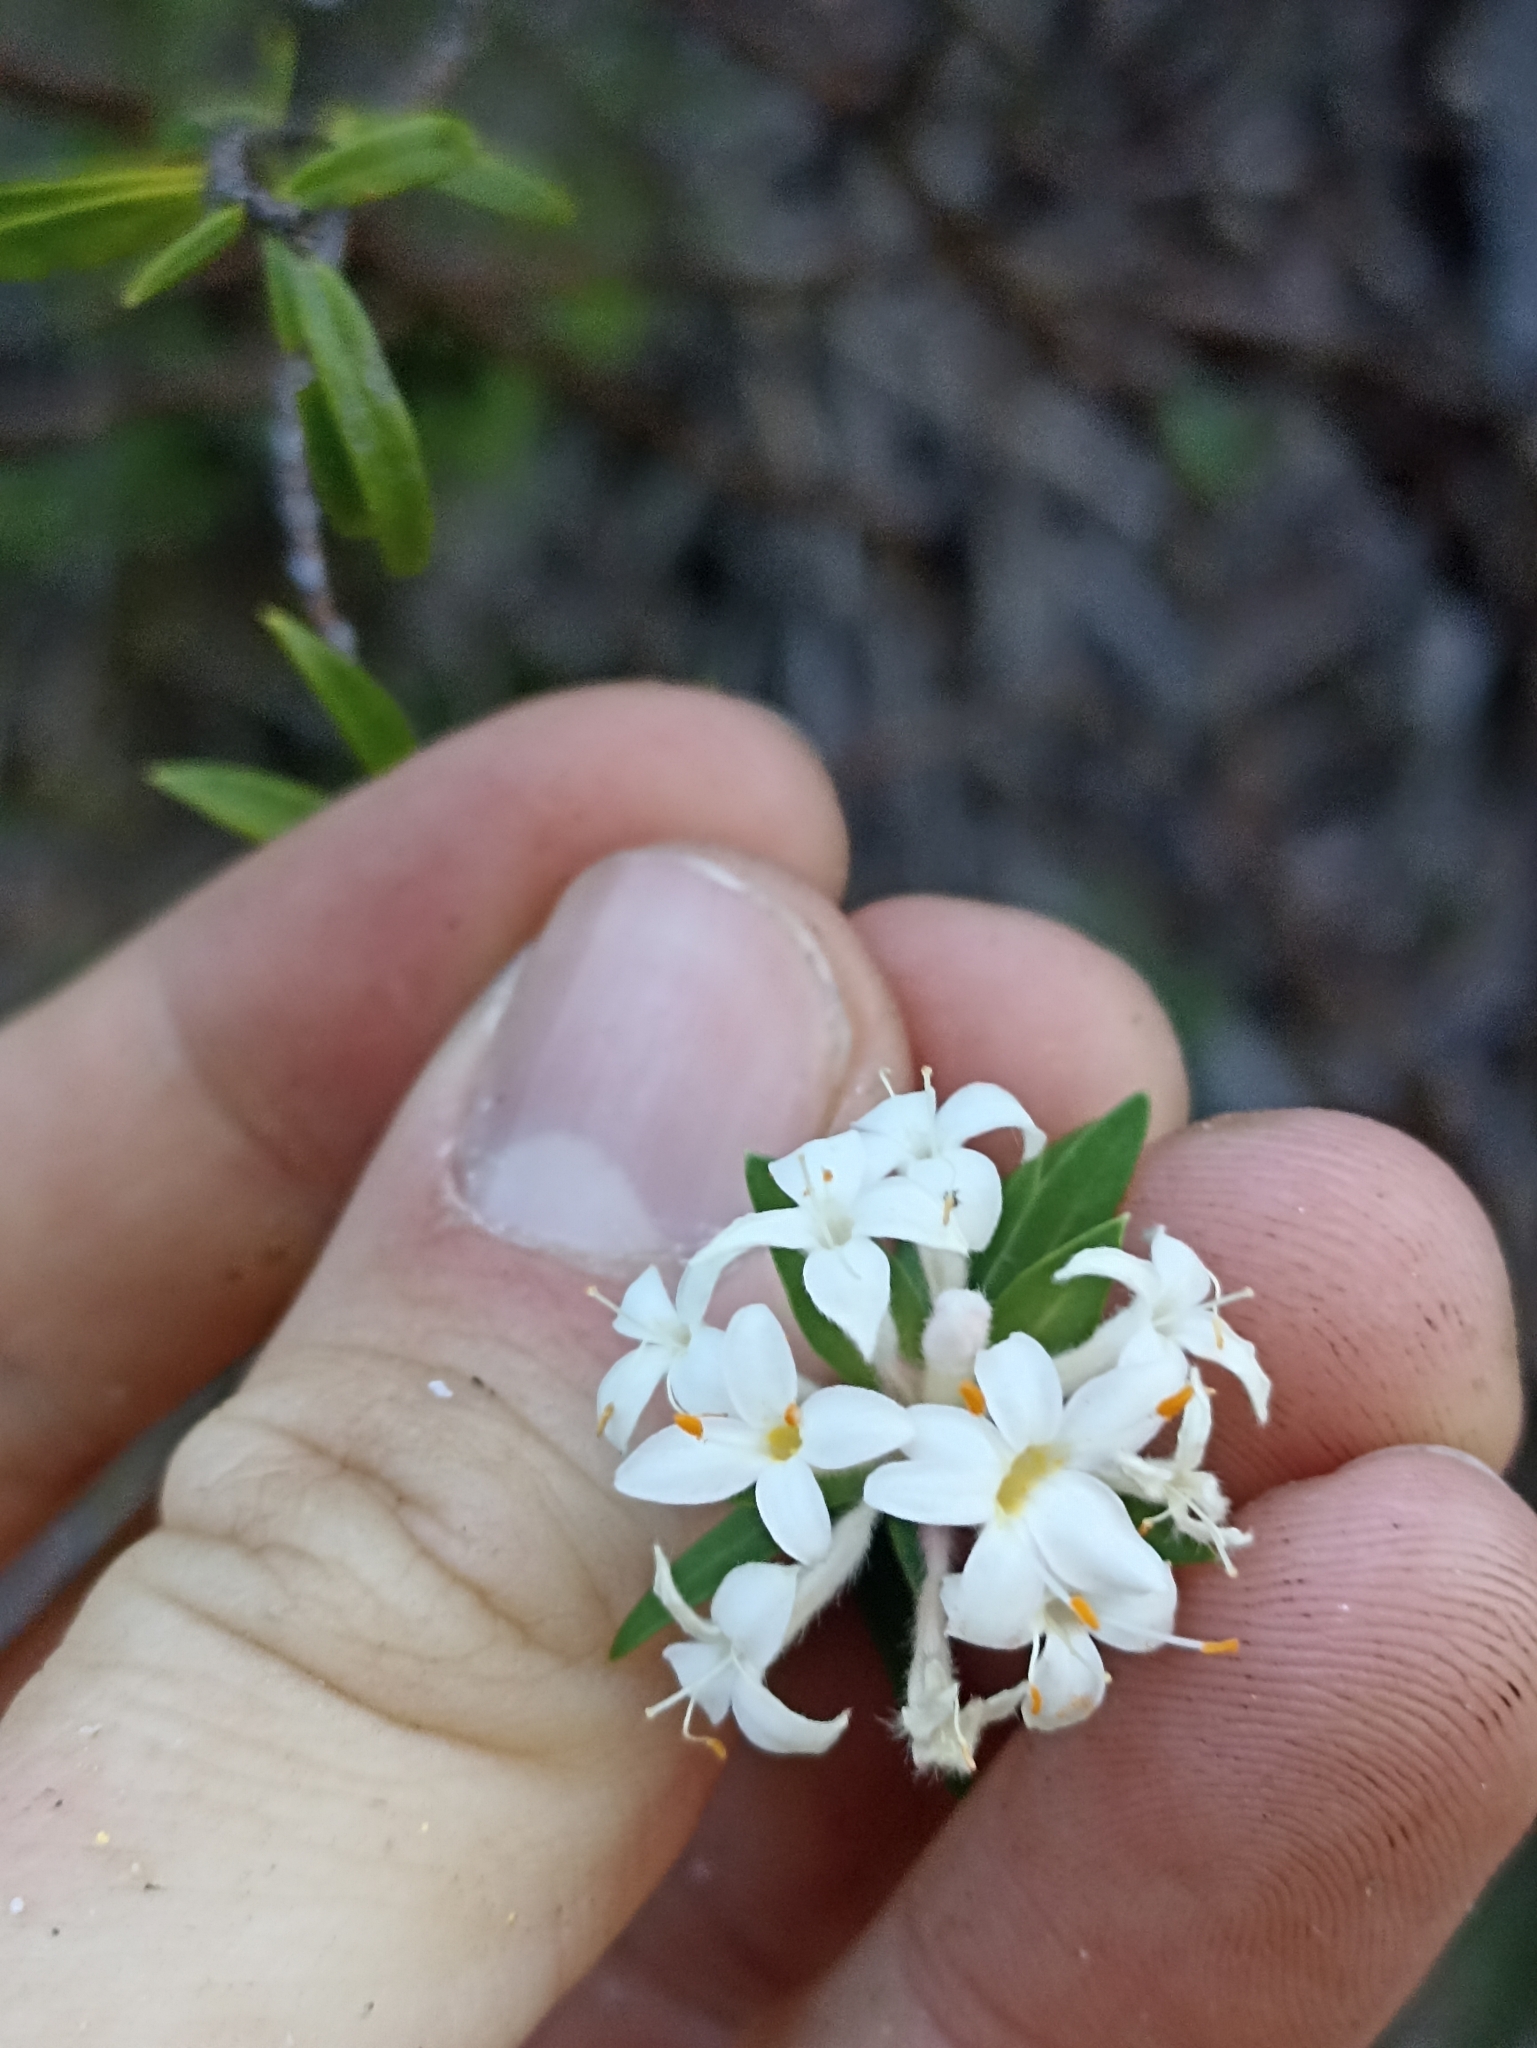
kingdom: Plantae
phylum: Tracheophyta
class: Magnoliopsida
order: Malvales
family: Thymelaeaceae
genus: Pimelea
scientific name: Pimelea longifolia
